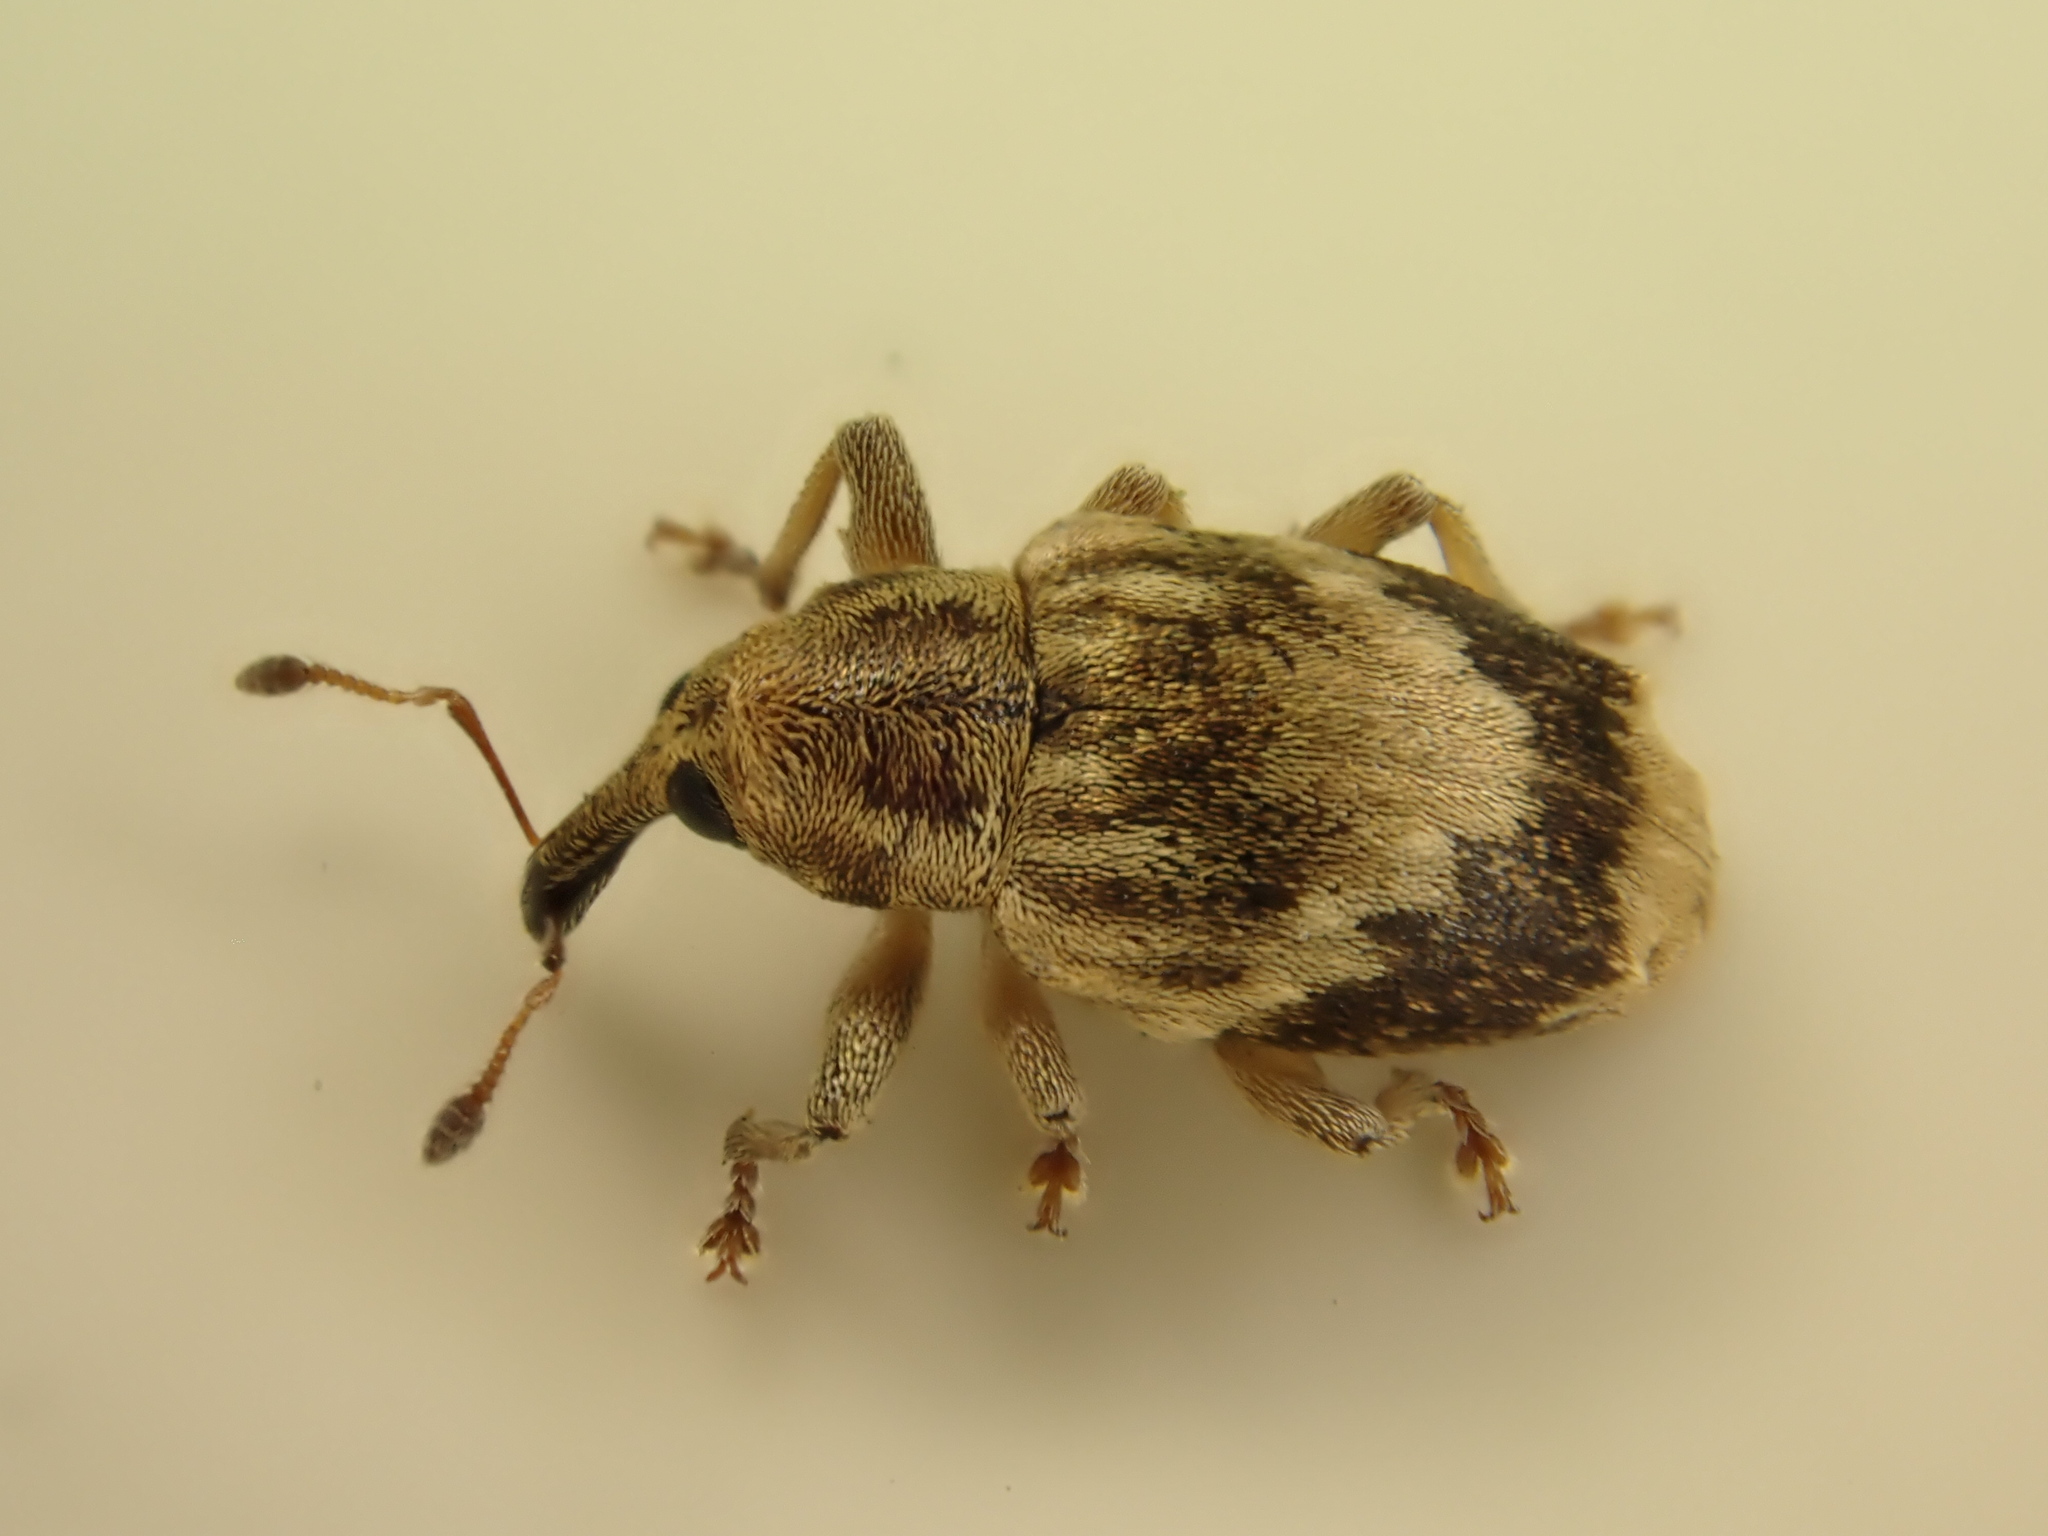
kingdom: Animalia
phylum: Arthropoda
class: Insecta
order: Coleoptera
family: Curculionidae
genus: Aneuma
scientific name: Aneuma compta
